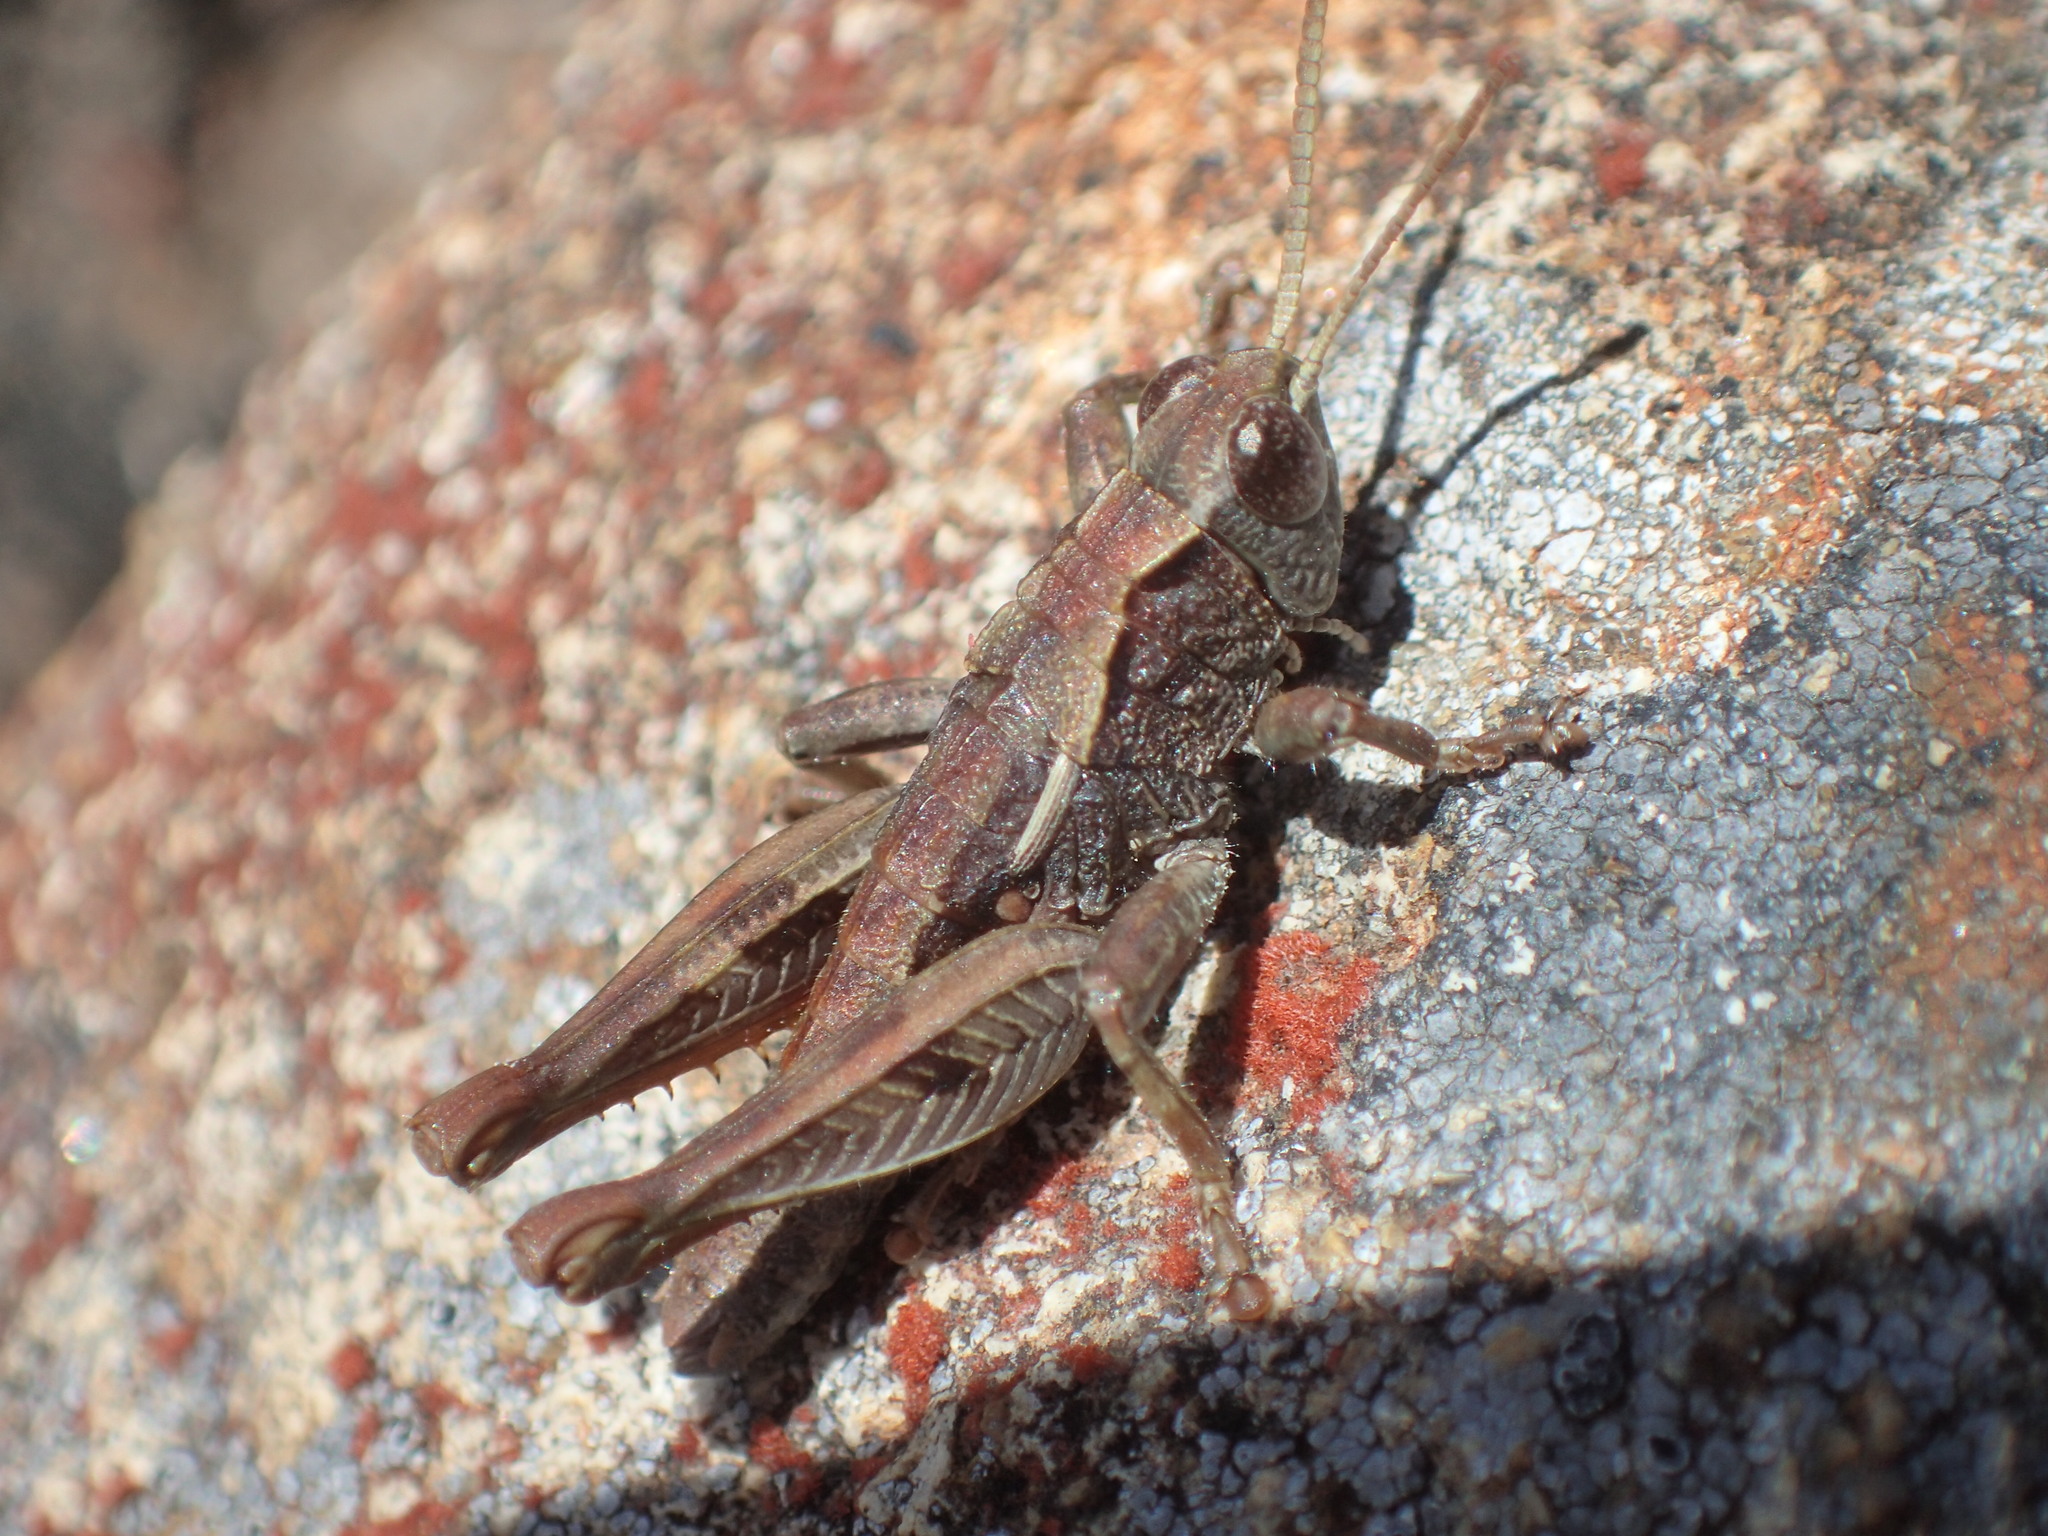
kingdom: Animalia
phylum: Arthropoda
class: Insecta
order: Orthoptera
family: Acrididae
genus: Tasmaniacris
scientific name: Tasmaniacris tasmaniensis
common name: Tasmanian grasshopper
